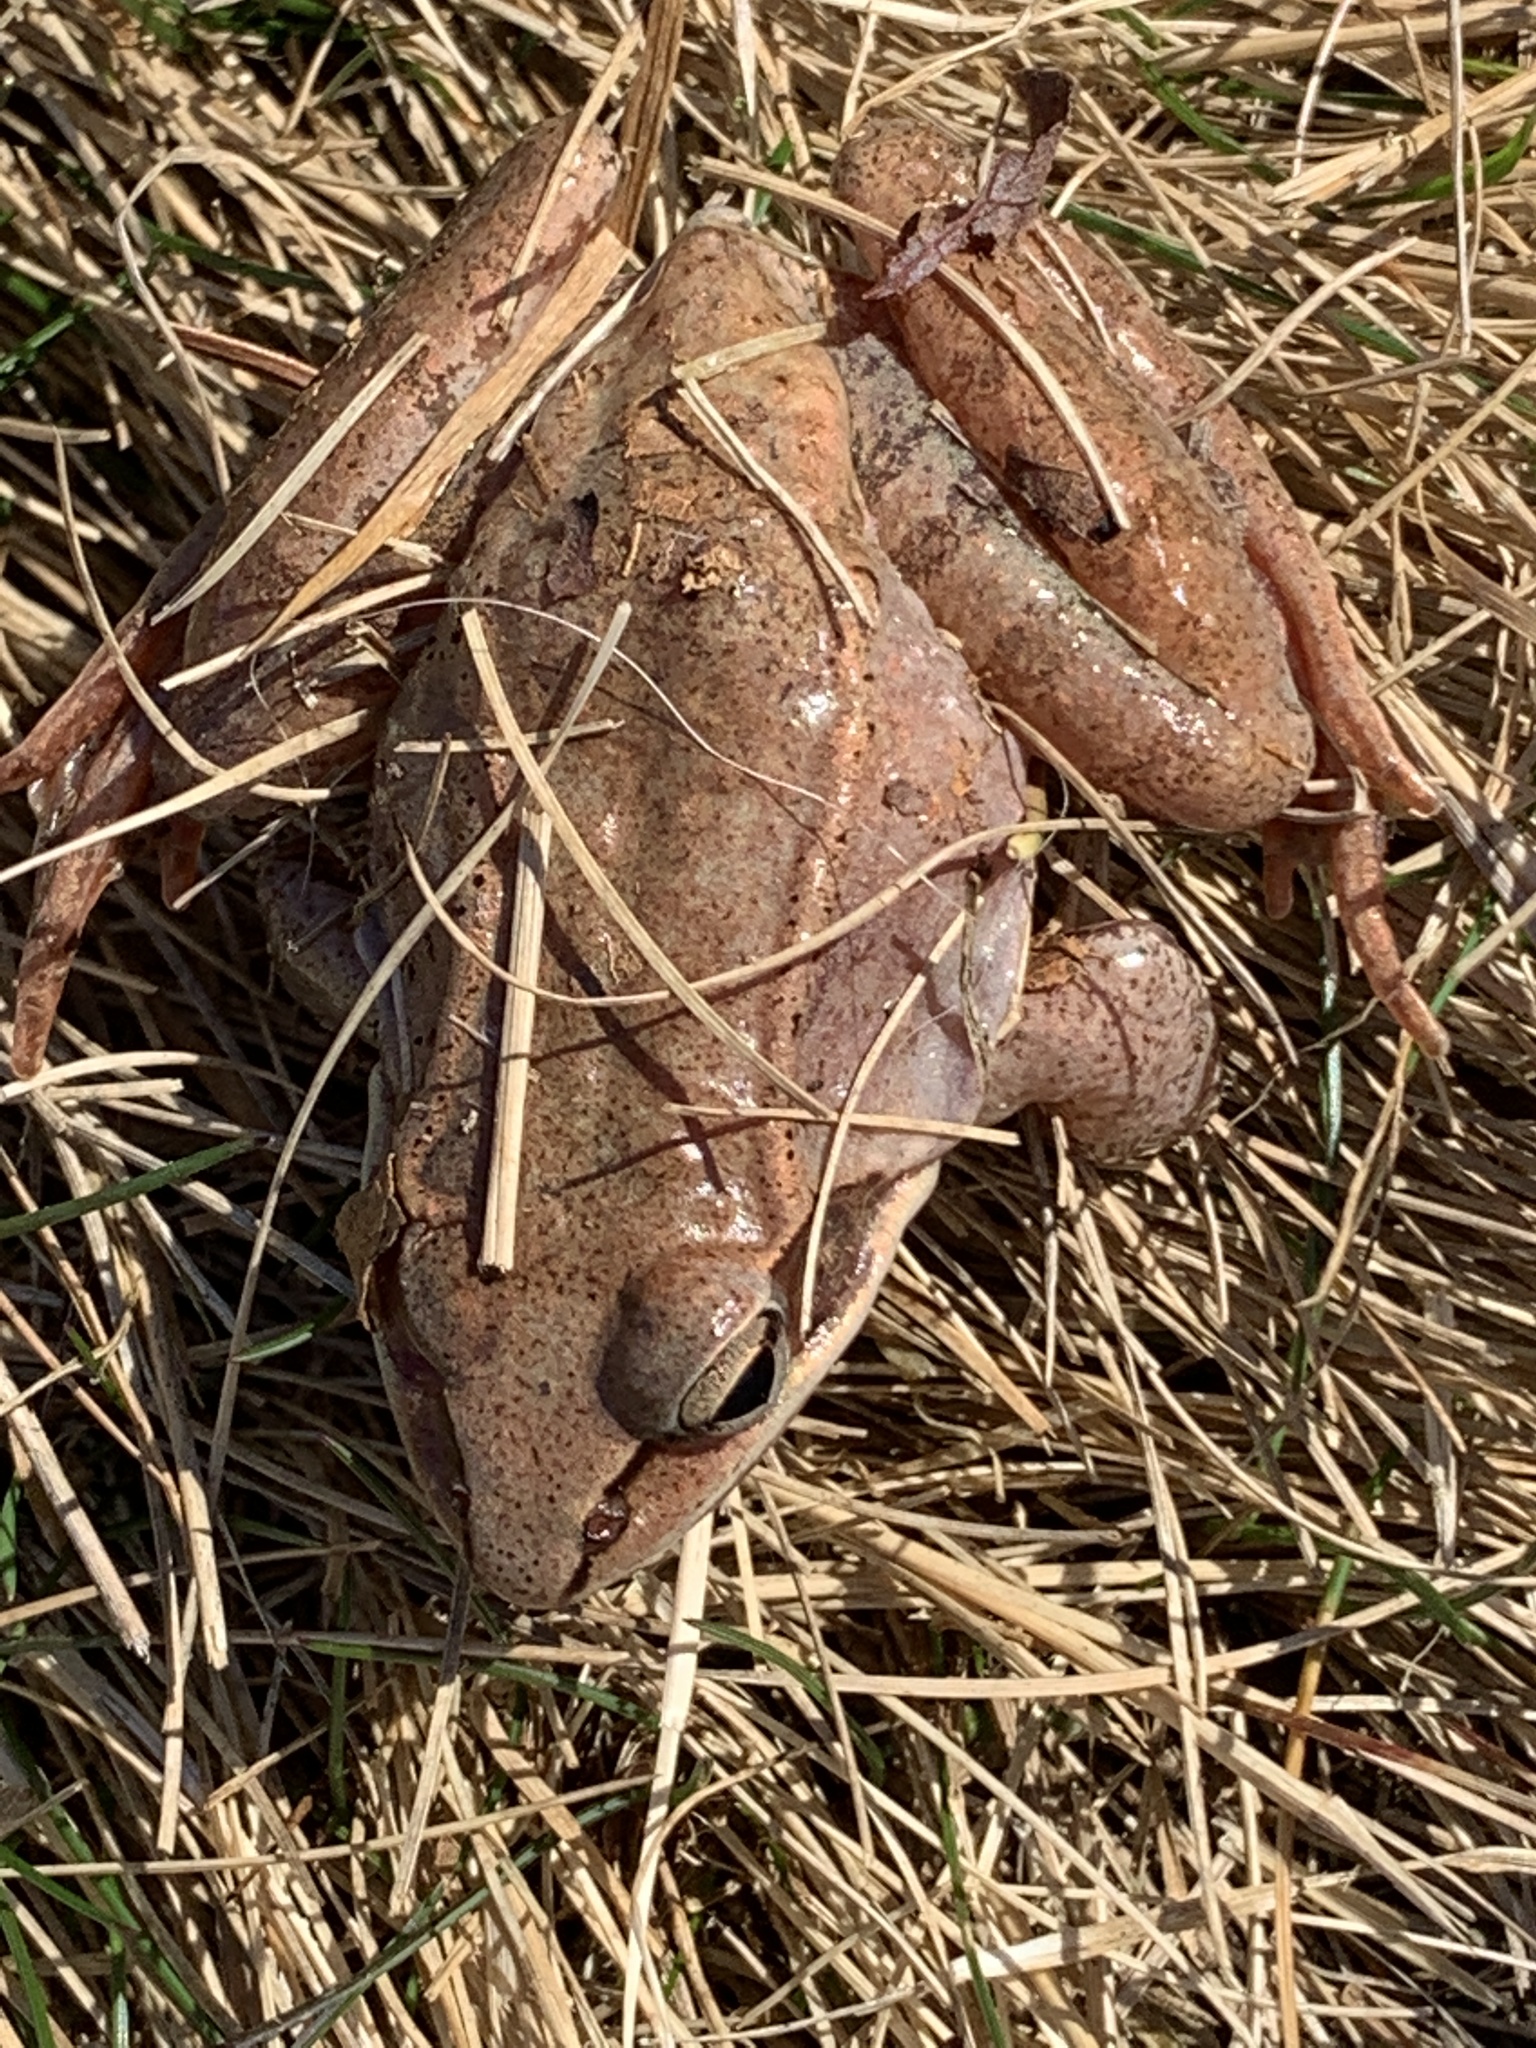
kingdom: Animalia
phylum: Chordata
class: Amphibia
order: Anura
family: Ranidae
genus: Lithobates
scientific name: Lithobates sylvaticus
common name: Wood frog
